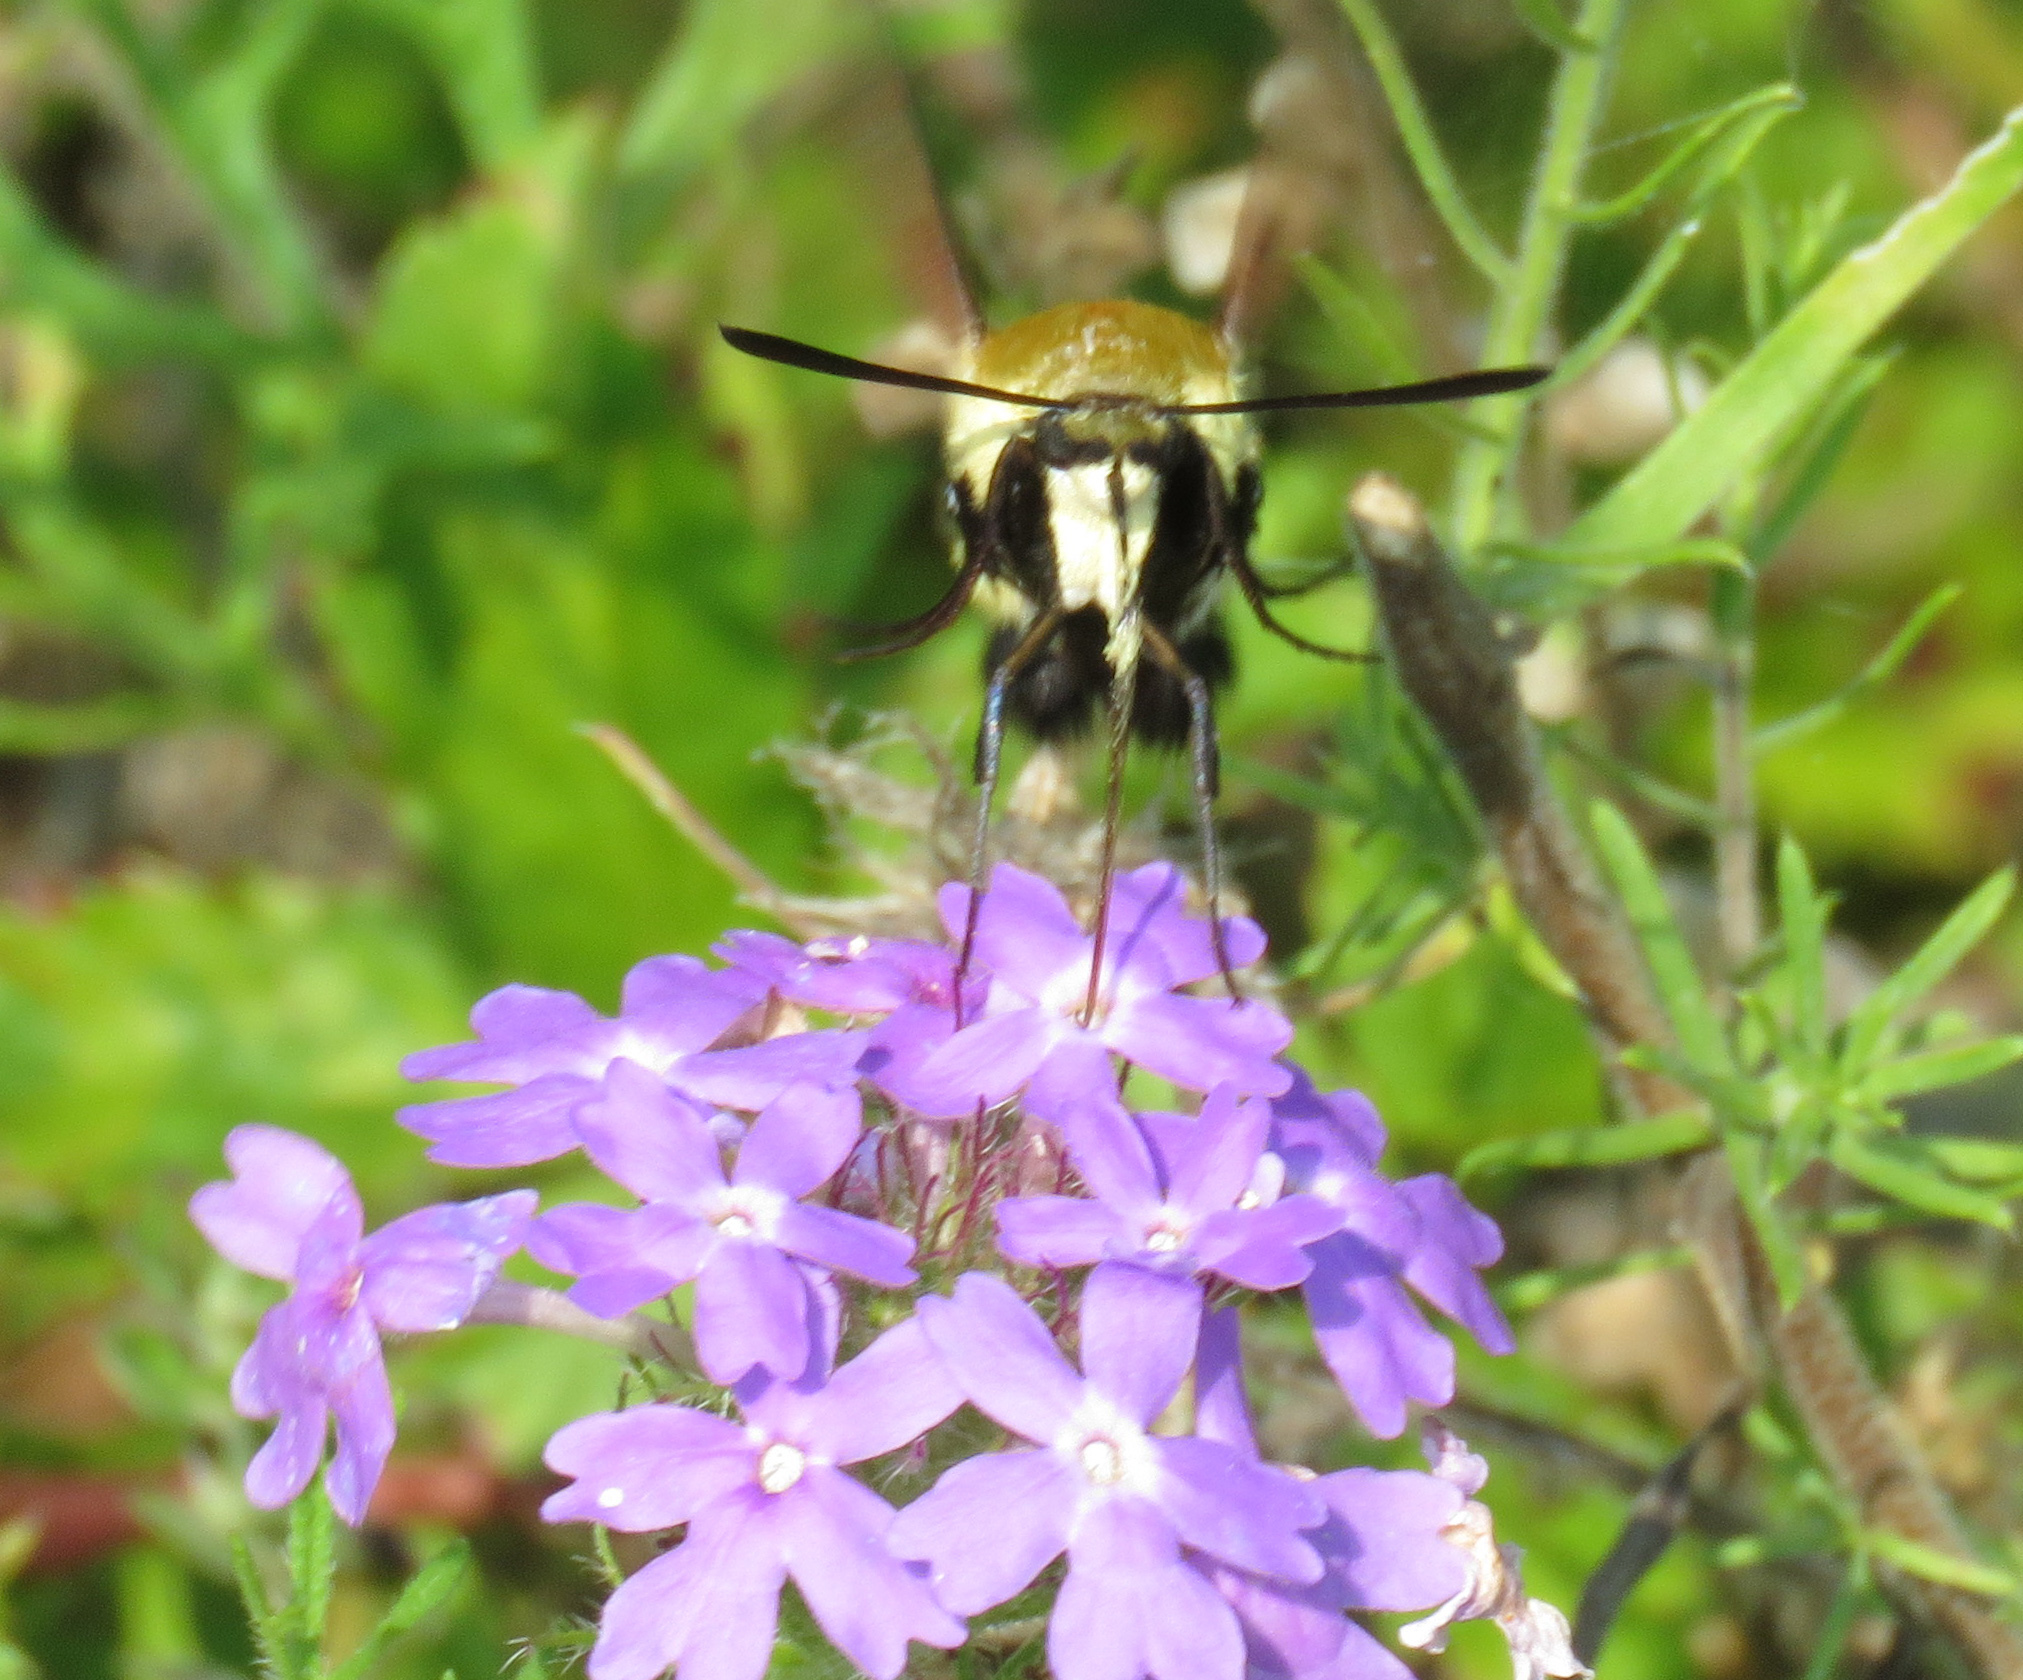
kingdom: Animalia
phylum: Arthropoda
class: Insecta
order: Lepidoptera
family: Sphingidae
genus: Hemaris
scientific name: Hemaris diffinis
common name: Bumblebee moth
